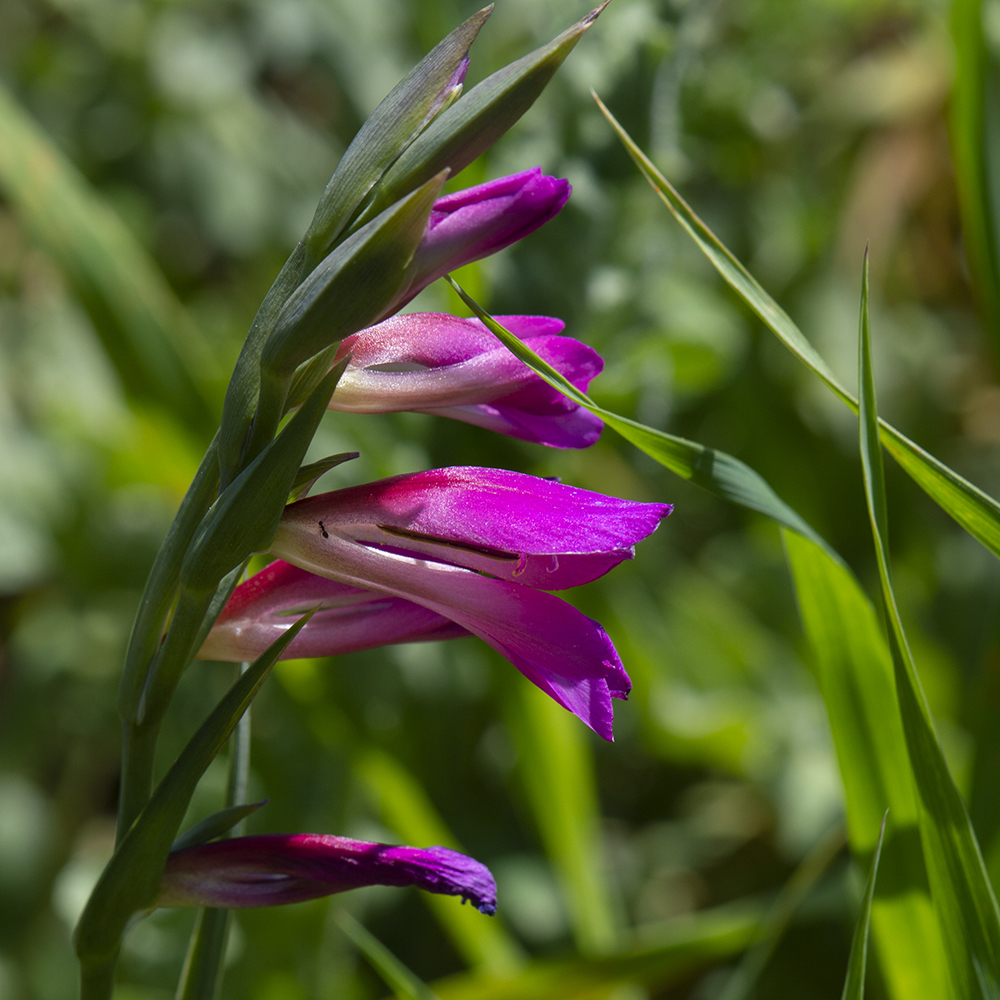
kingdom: Plantae
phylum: Tracheophyta
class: Liliopsida
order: Asparagales
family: Iridaceae
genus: Gladiolus
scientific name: Gladiolus italicus
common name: Field gladiolus
